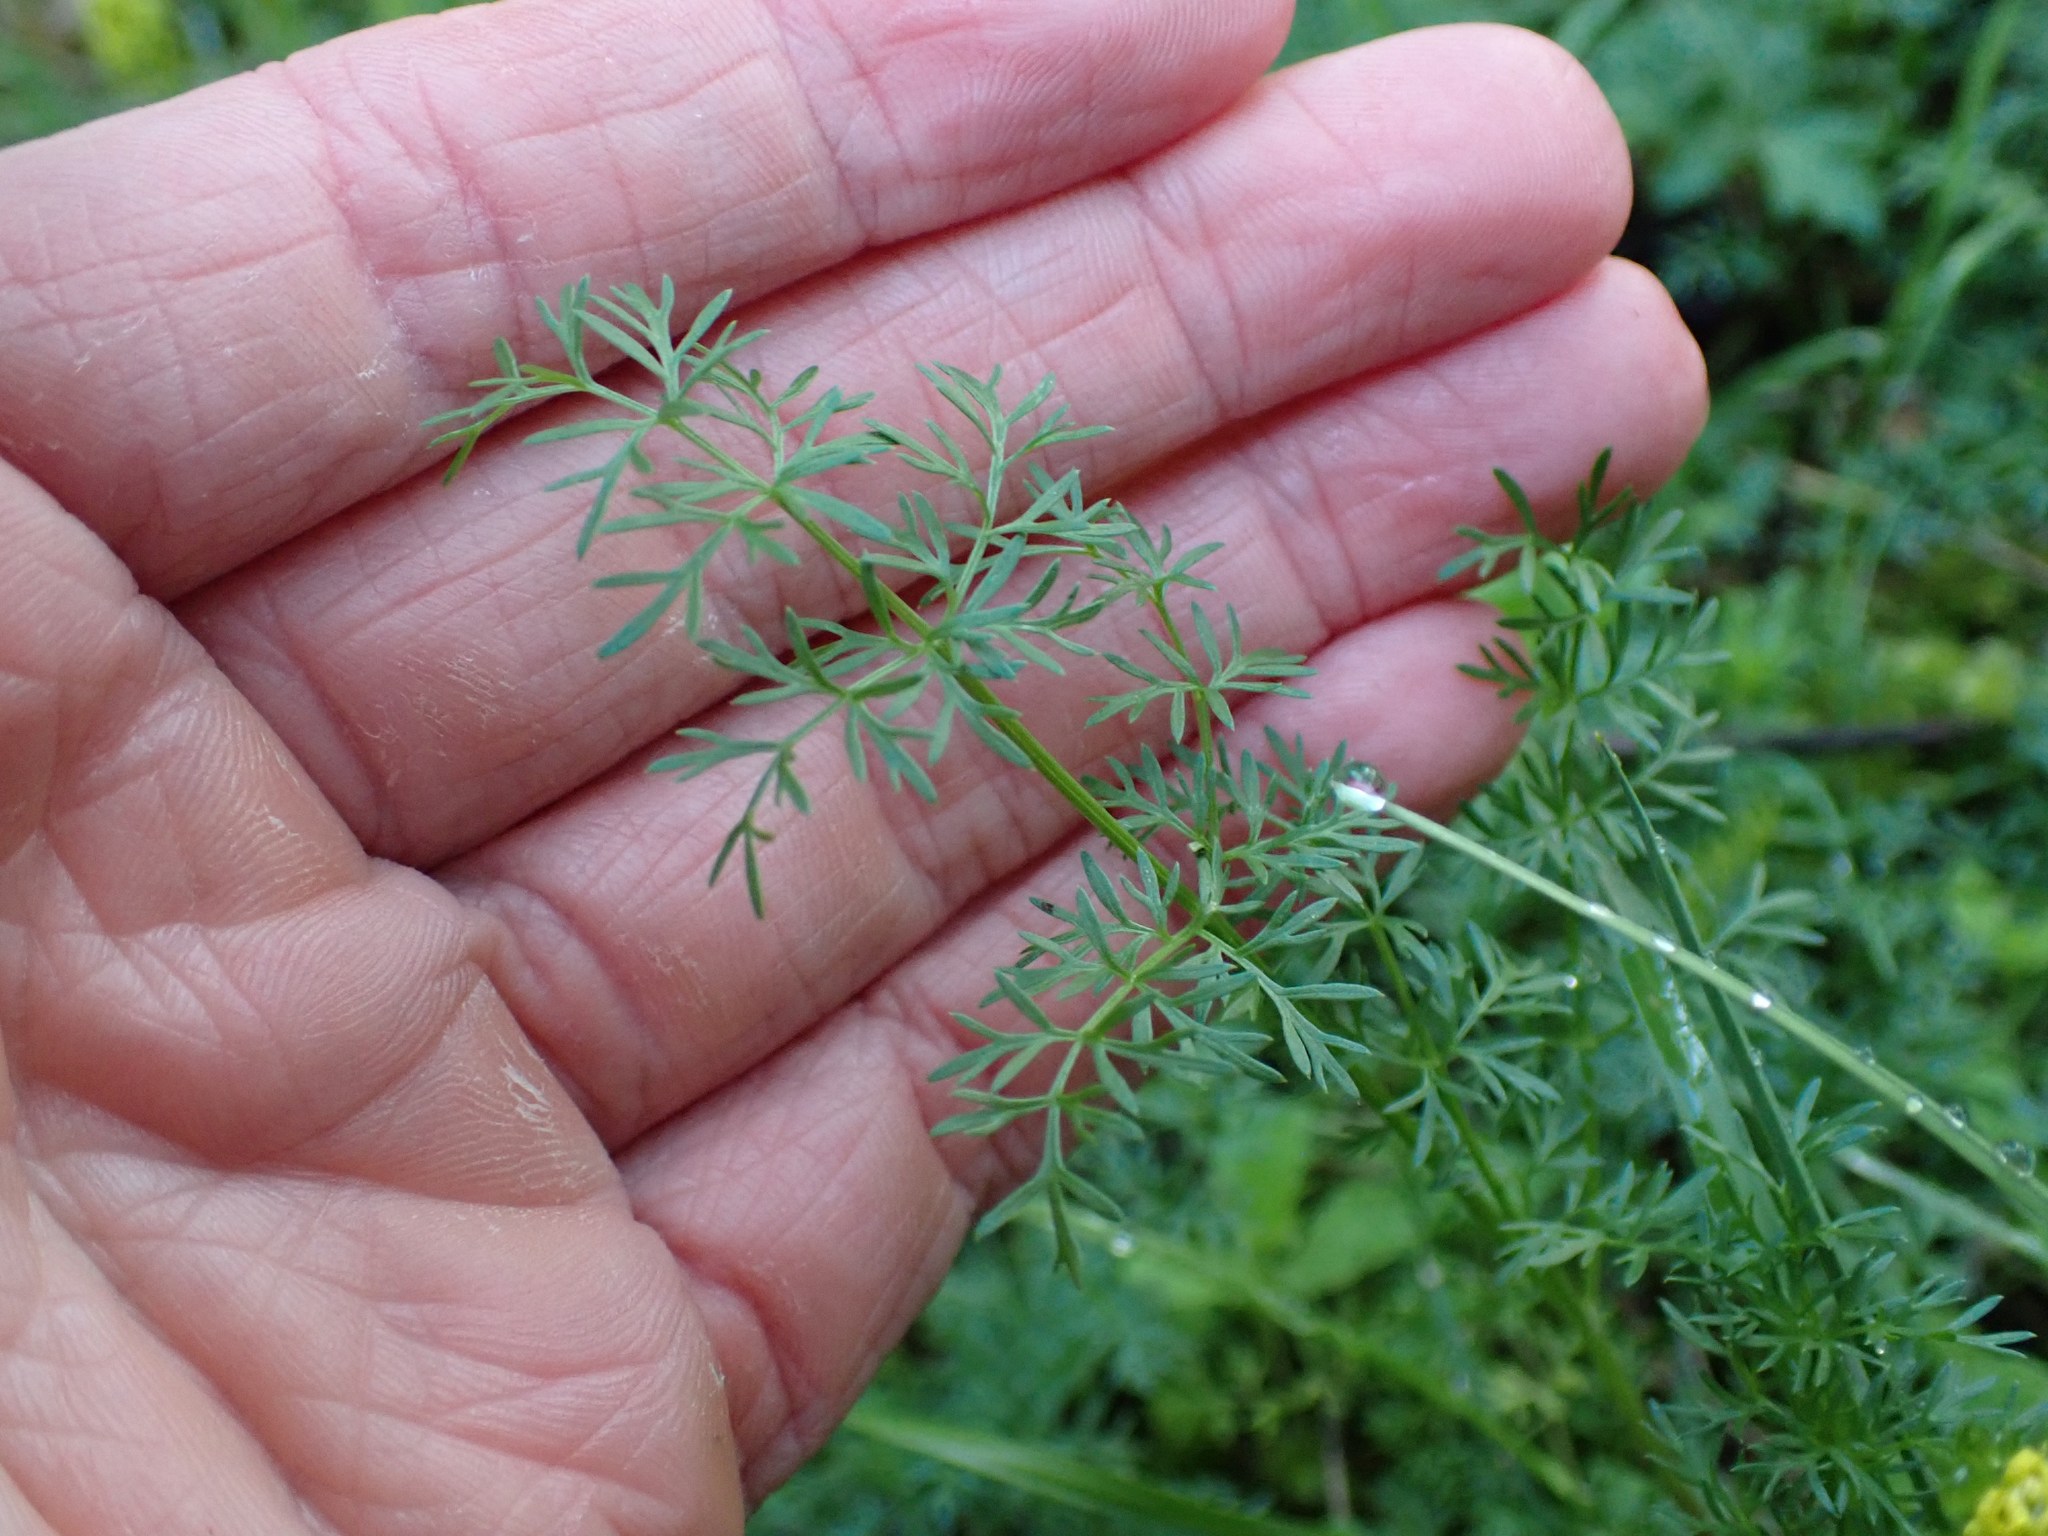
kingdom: Plantae
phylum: Tracheophyta
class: Magnoliopsida
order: Apiales
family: Apiaceae
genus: Lomatium
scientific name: Lomatium utriculatum
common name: Fine-leaf desert-parsley
